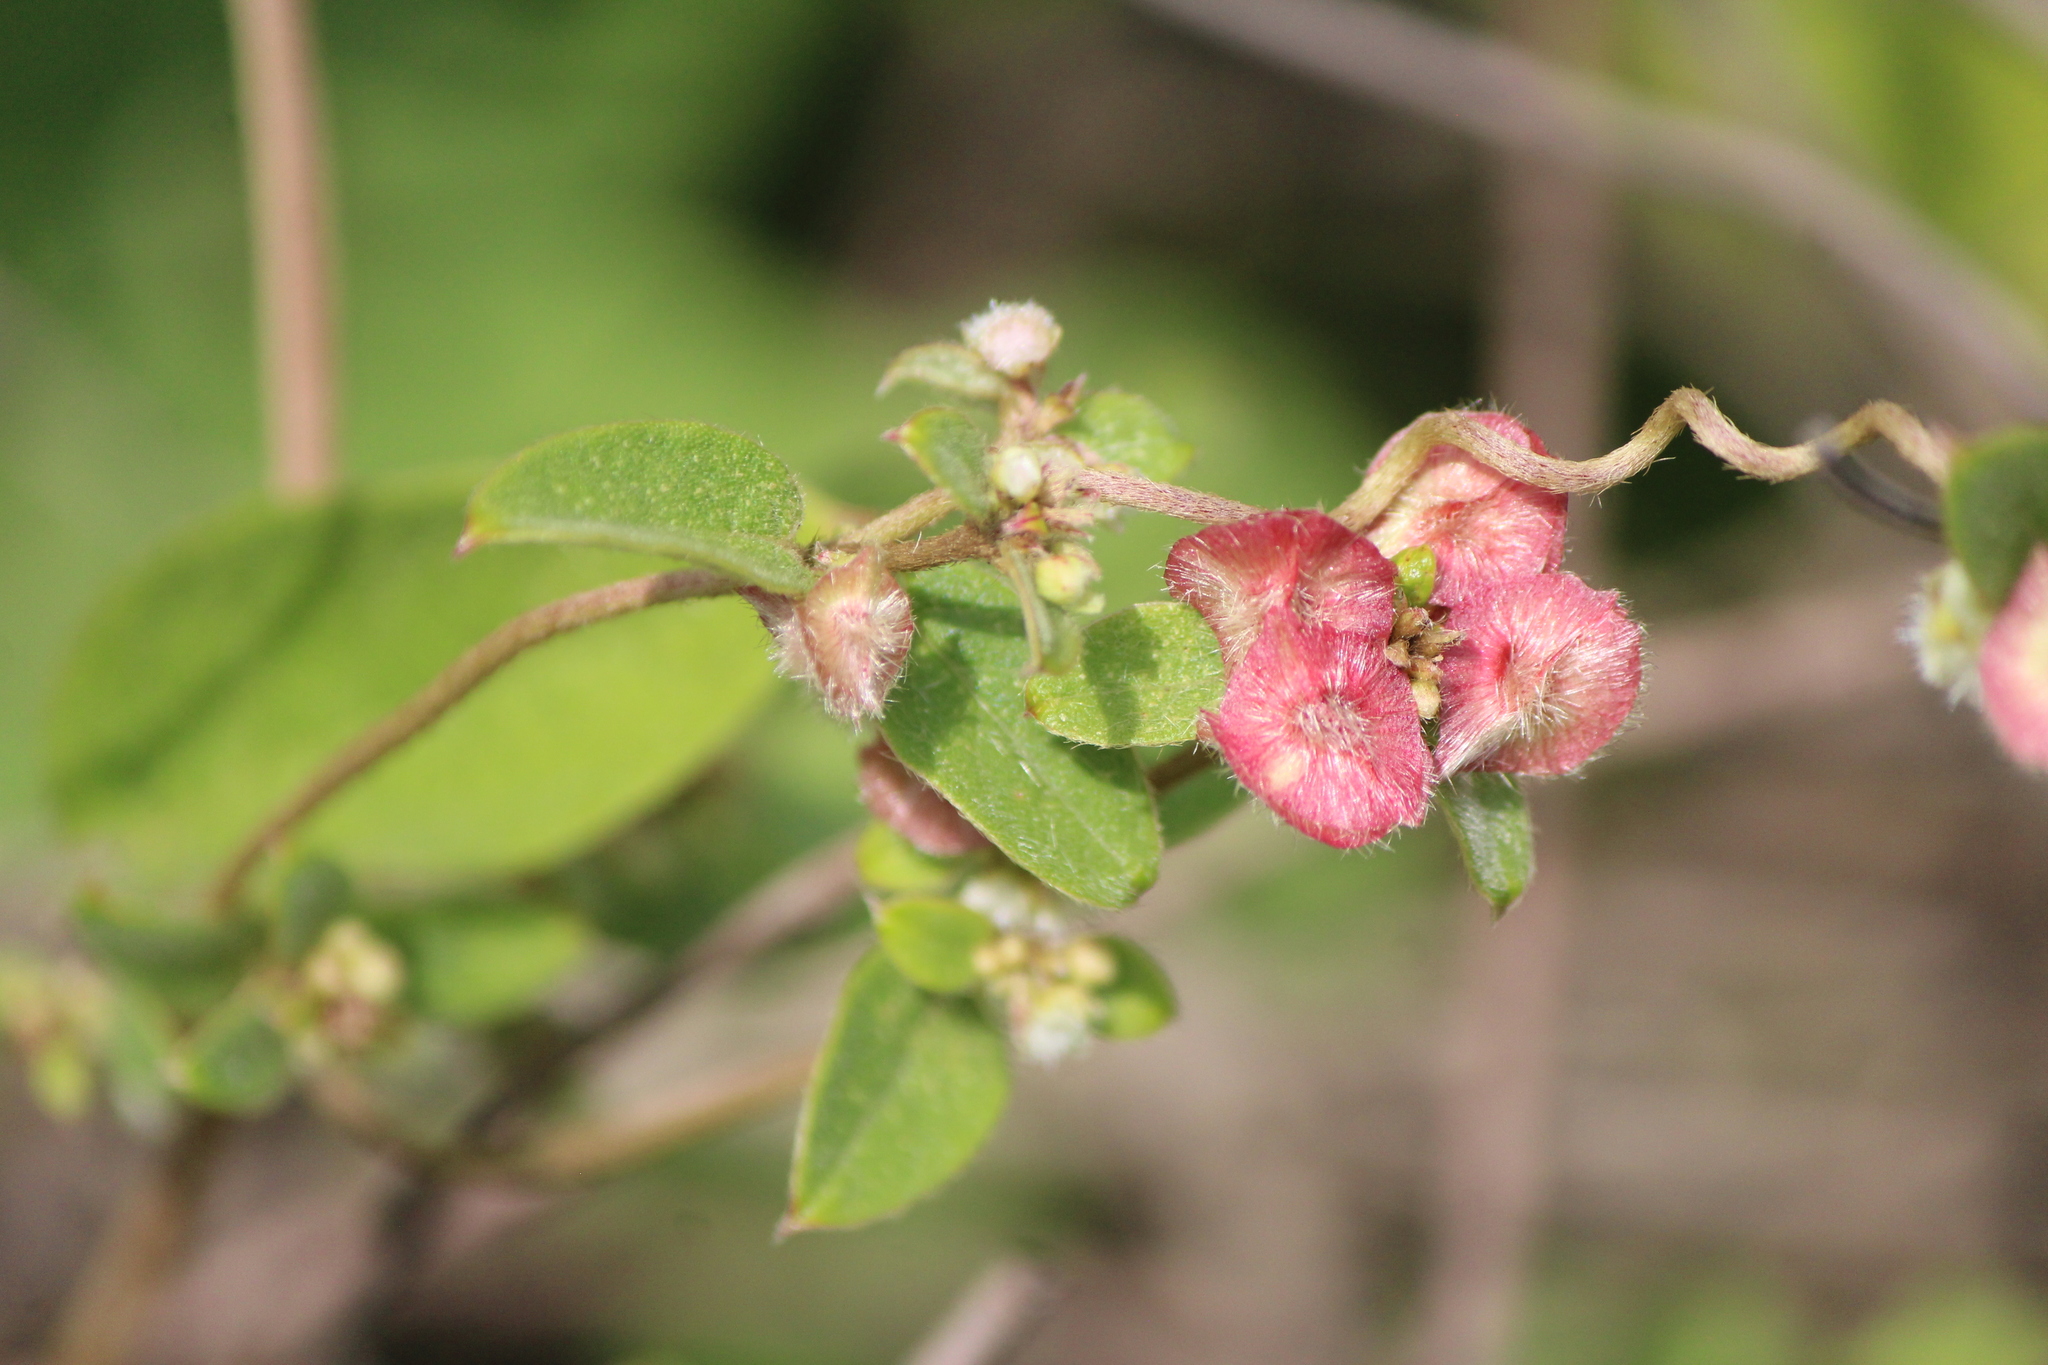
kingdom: Plantae
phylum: Tracheophyta
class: Magnoliopsida
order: Malpighiales
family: Malpighiaceae
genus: Gaudichaudia
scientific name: Gaudichaudia cynanchoides
